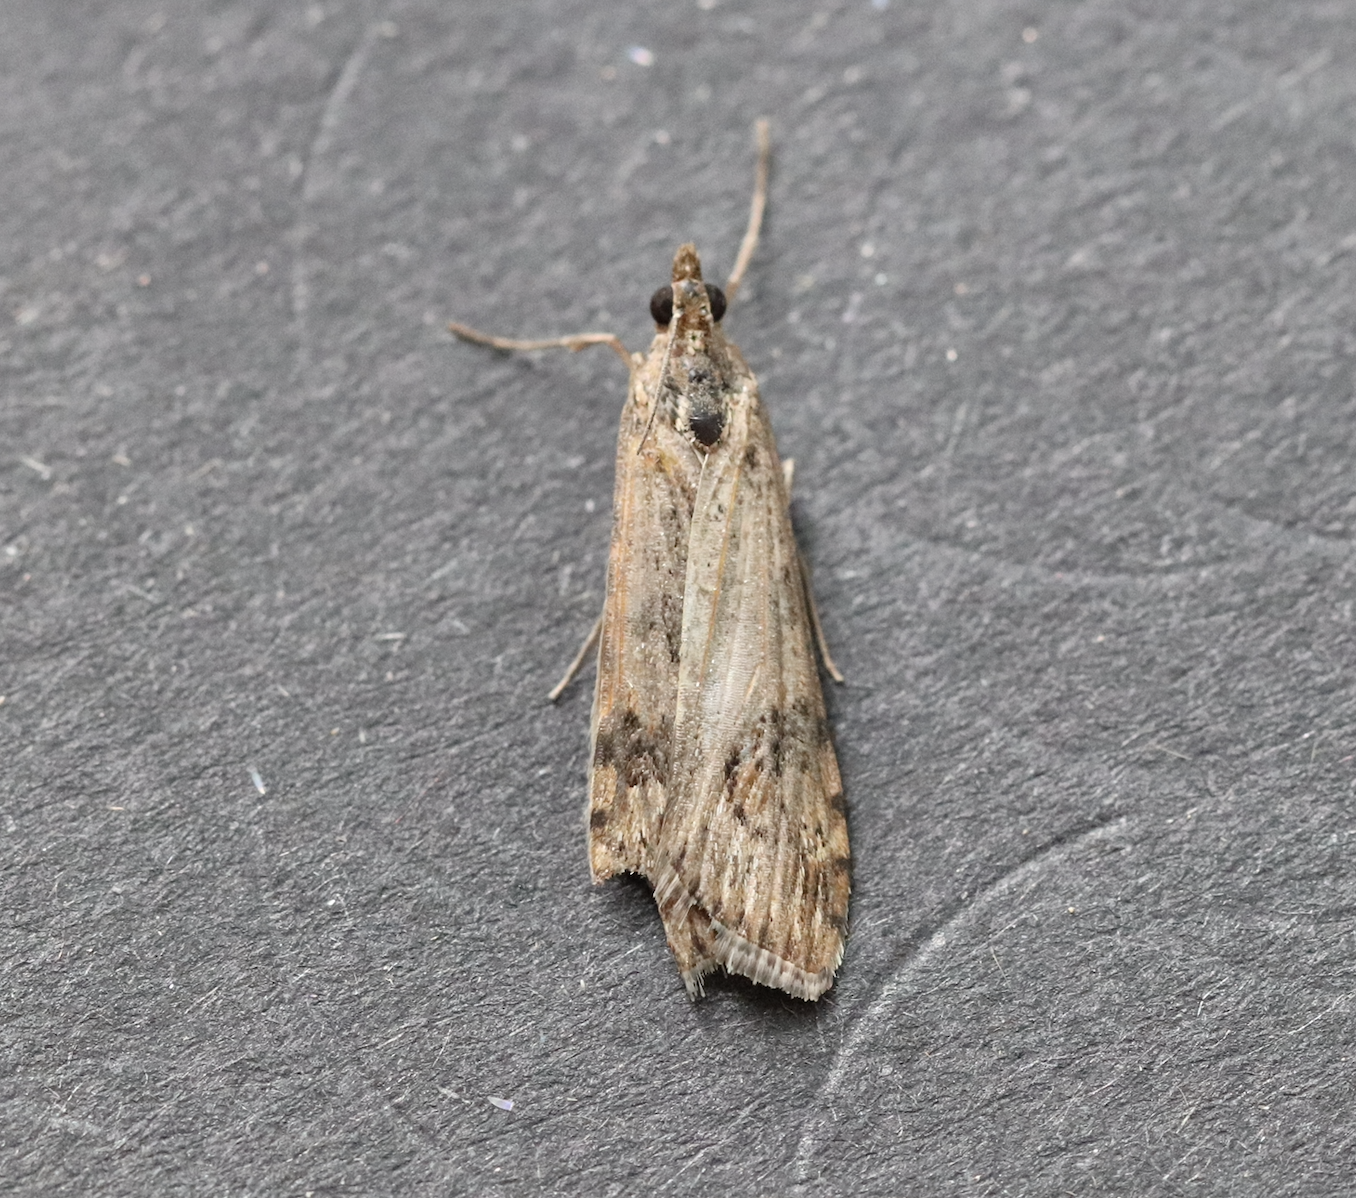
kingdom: Animalia
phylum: Arthropoda
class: Insecta
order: Lepidoptera
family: Crambidae
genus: Nomophila
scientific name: Nomophila noctuella
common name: Rush veneer
